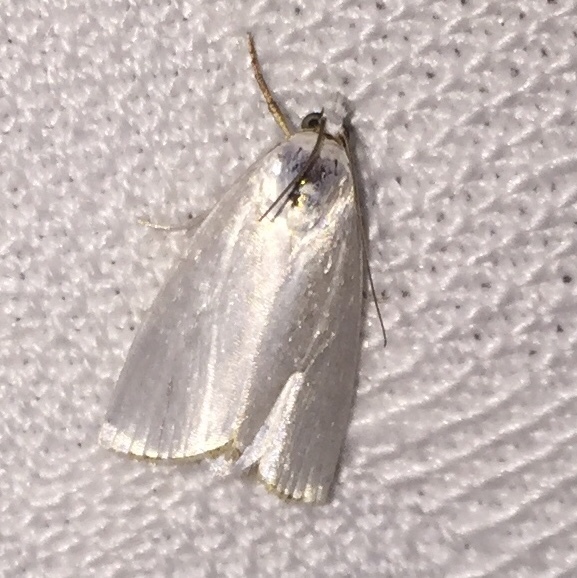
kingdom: Animalia
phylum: Arthropoda
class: Insecta
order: Lepidoptera
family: Crambidae
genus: Argyria
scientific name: Argyria nivalis
